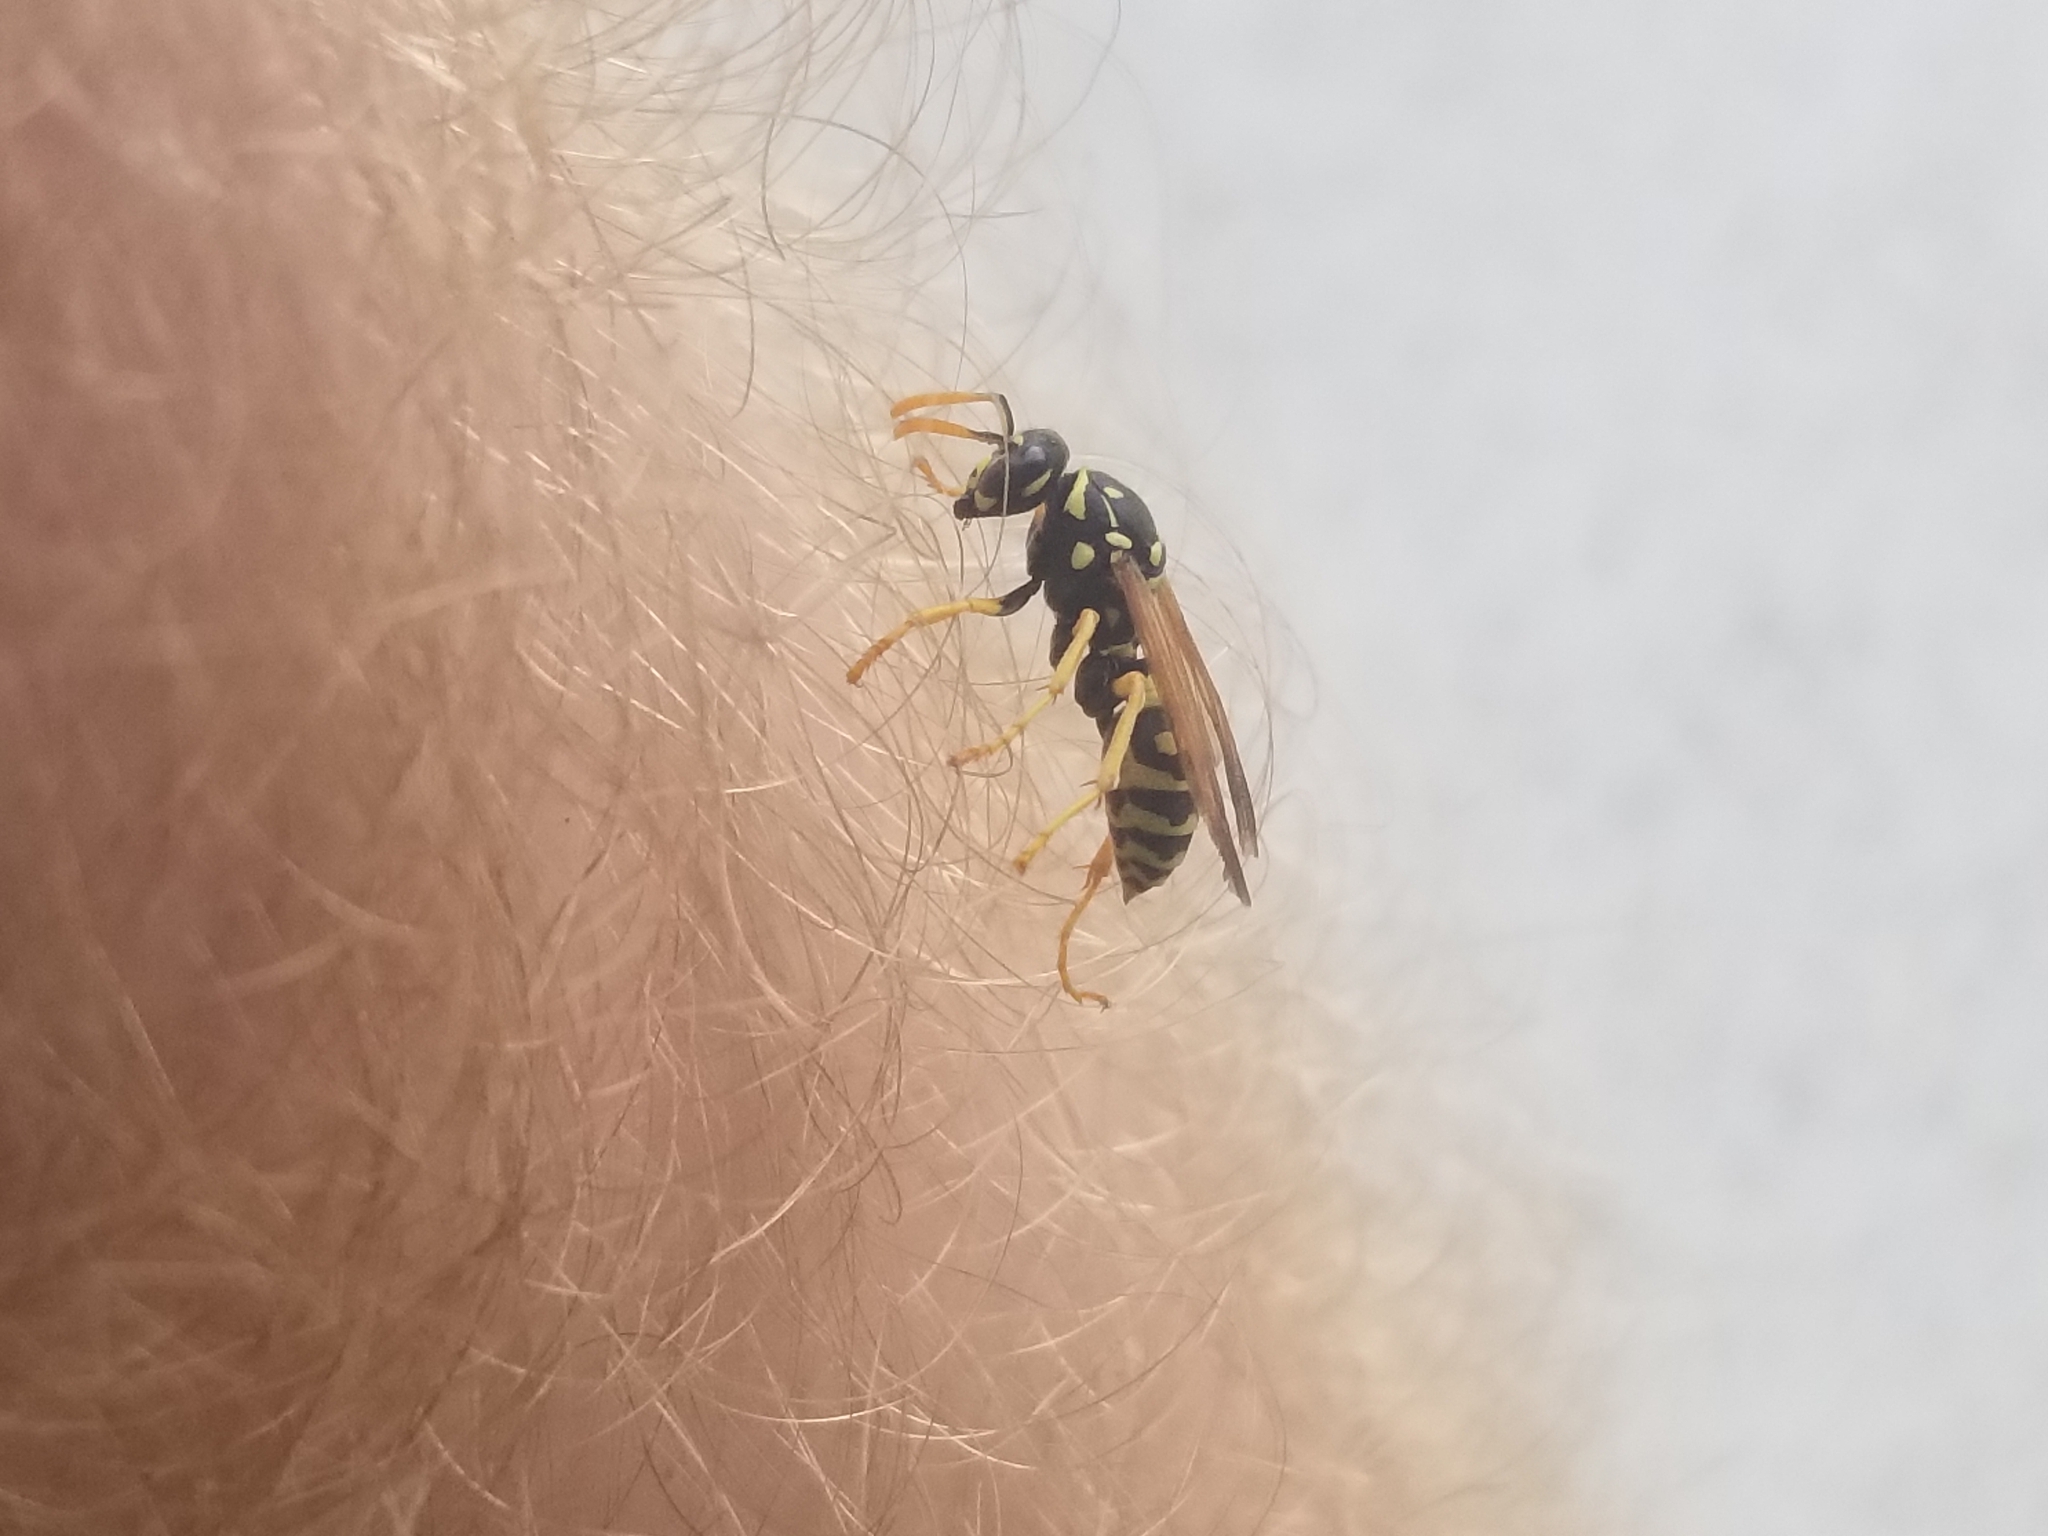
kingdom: Animalia
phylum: Arthropoda
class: Insecta
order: Hymenoptera
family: Eumenidae
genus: Polistes
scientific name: Polistes dominula
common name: Paper wasp
